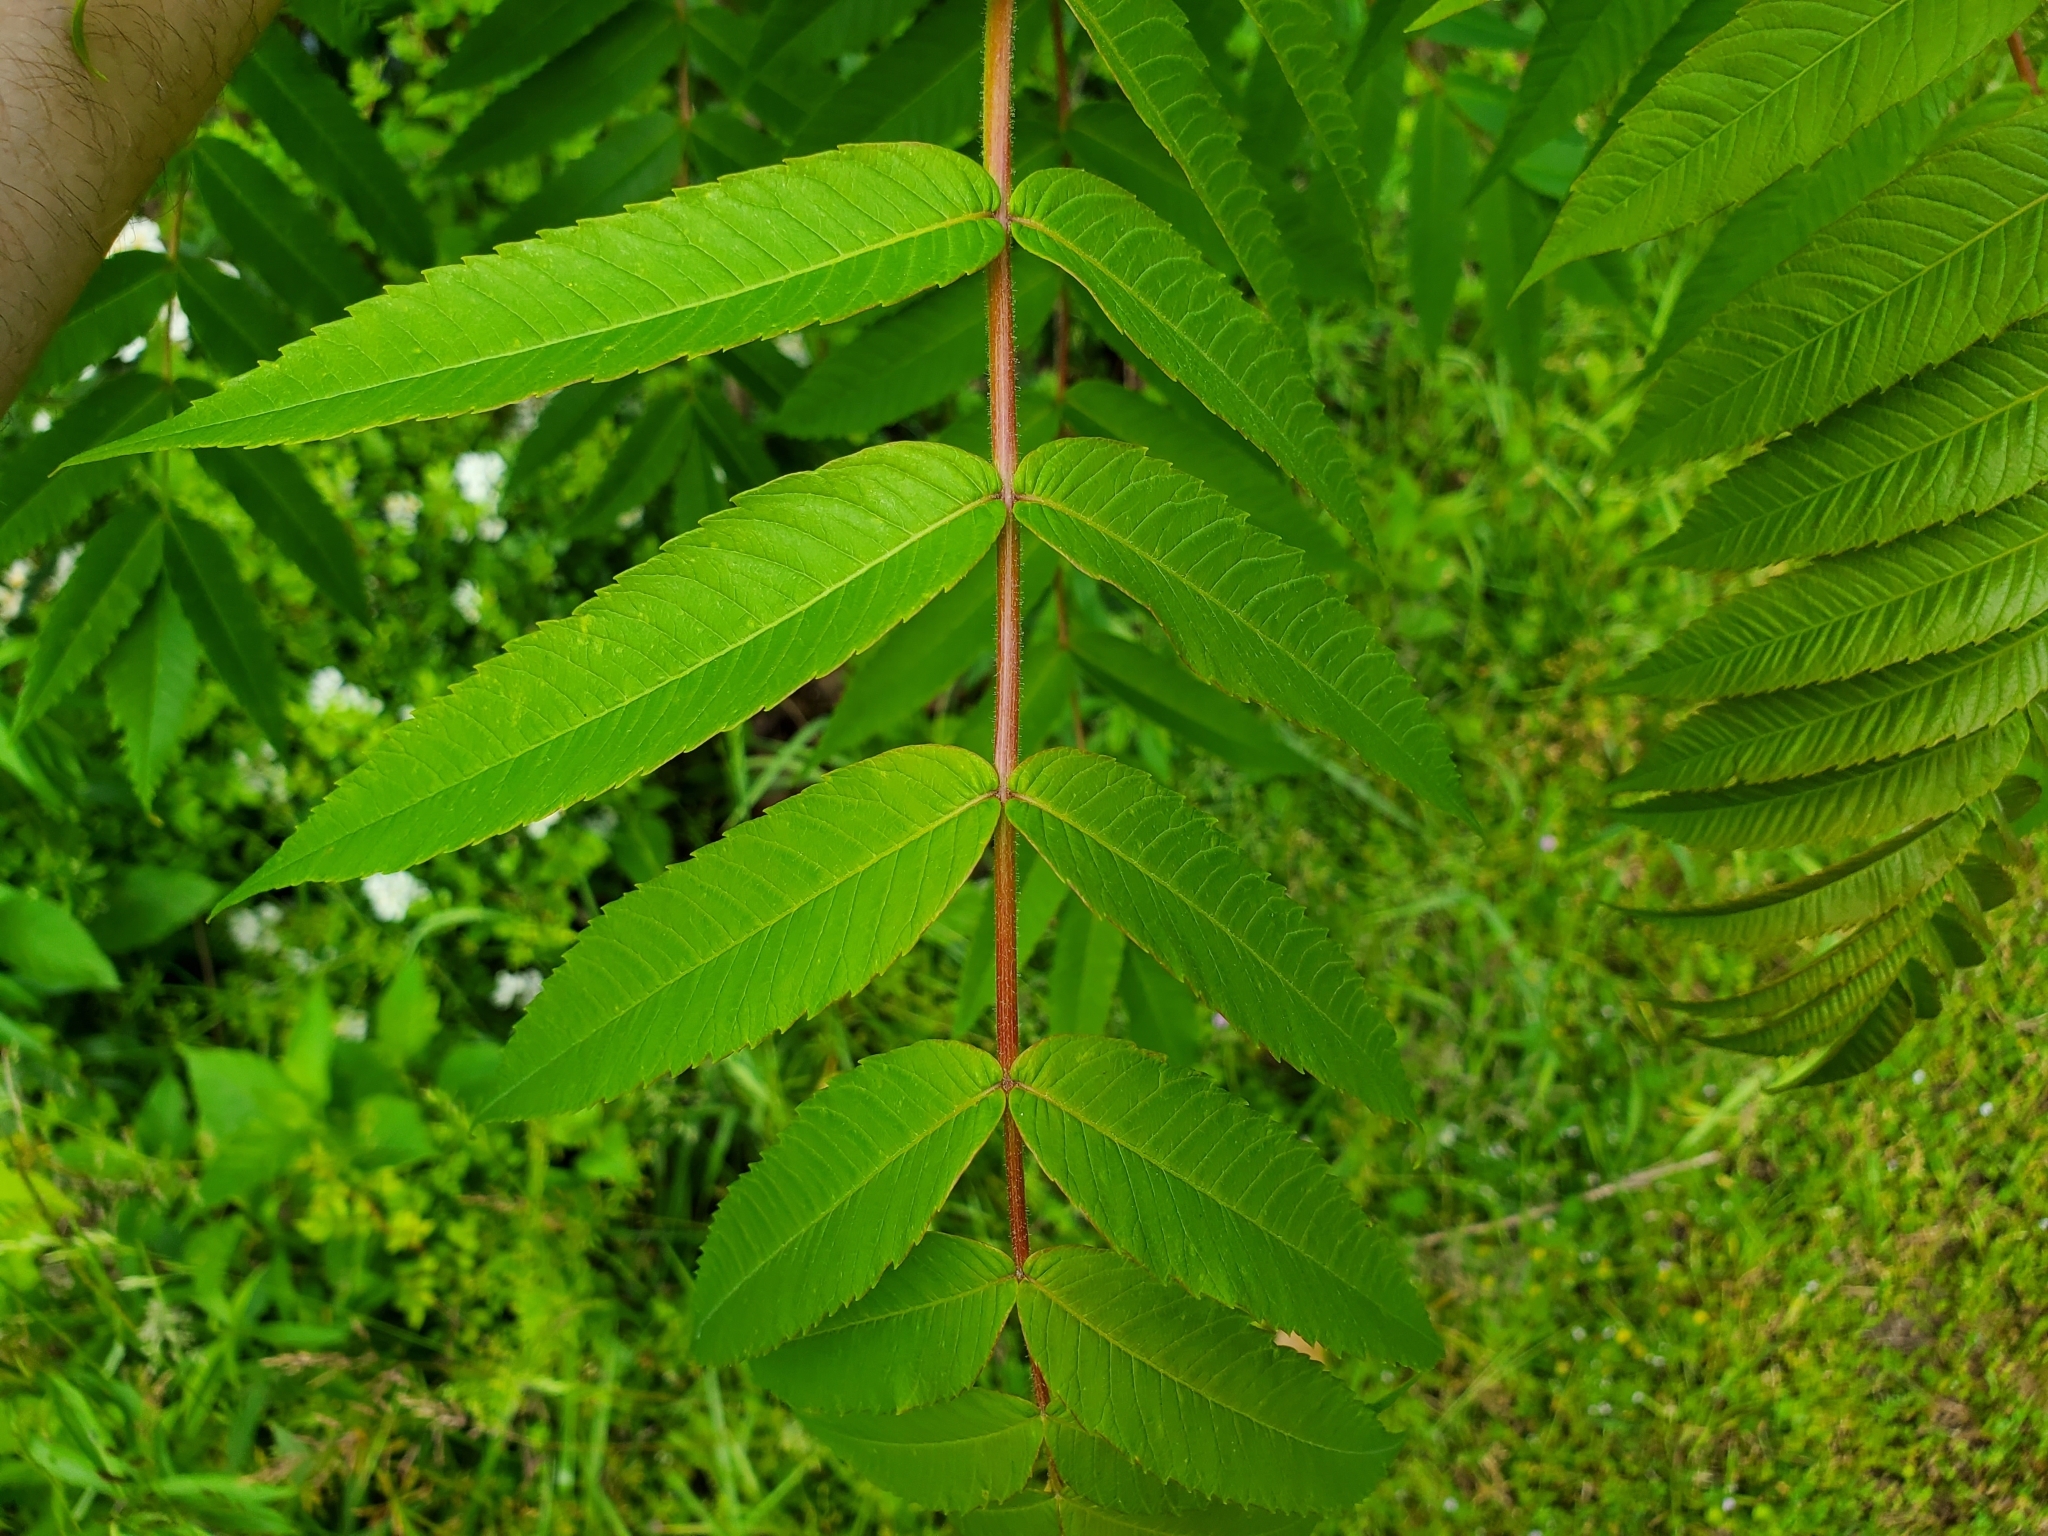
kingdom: Plantae
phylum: Tracheophyta
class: Magnoliopsida
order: Sapindales
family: Anacardiaceae
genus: Rhus
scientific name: Rhus typhina
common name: Staghorn sumac
